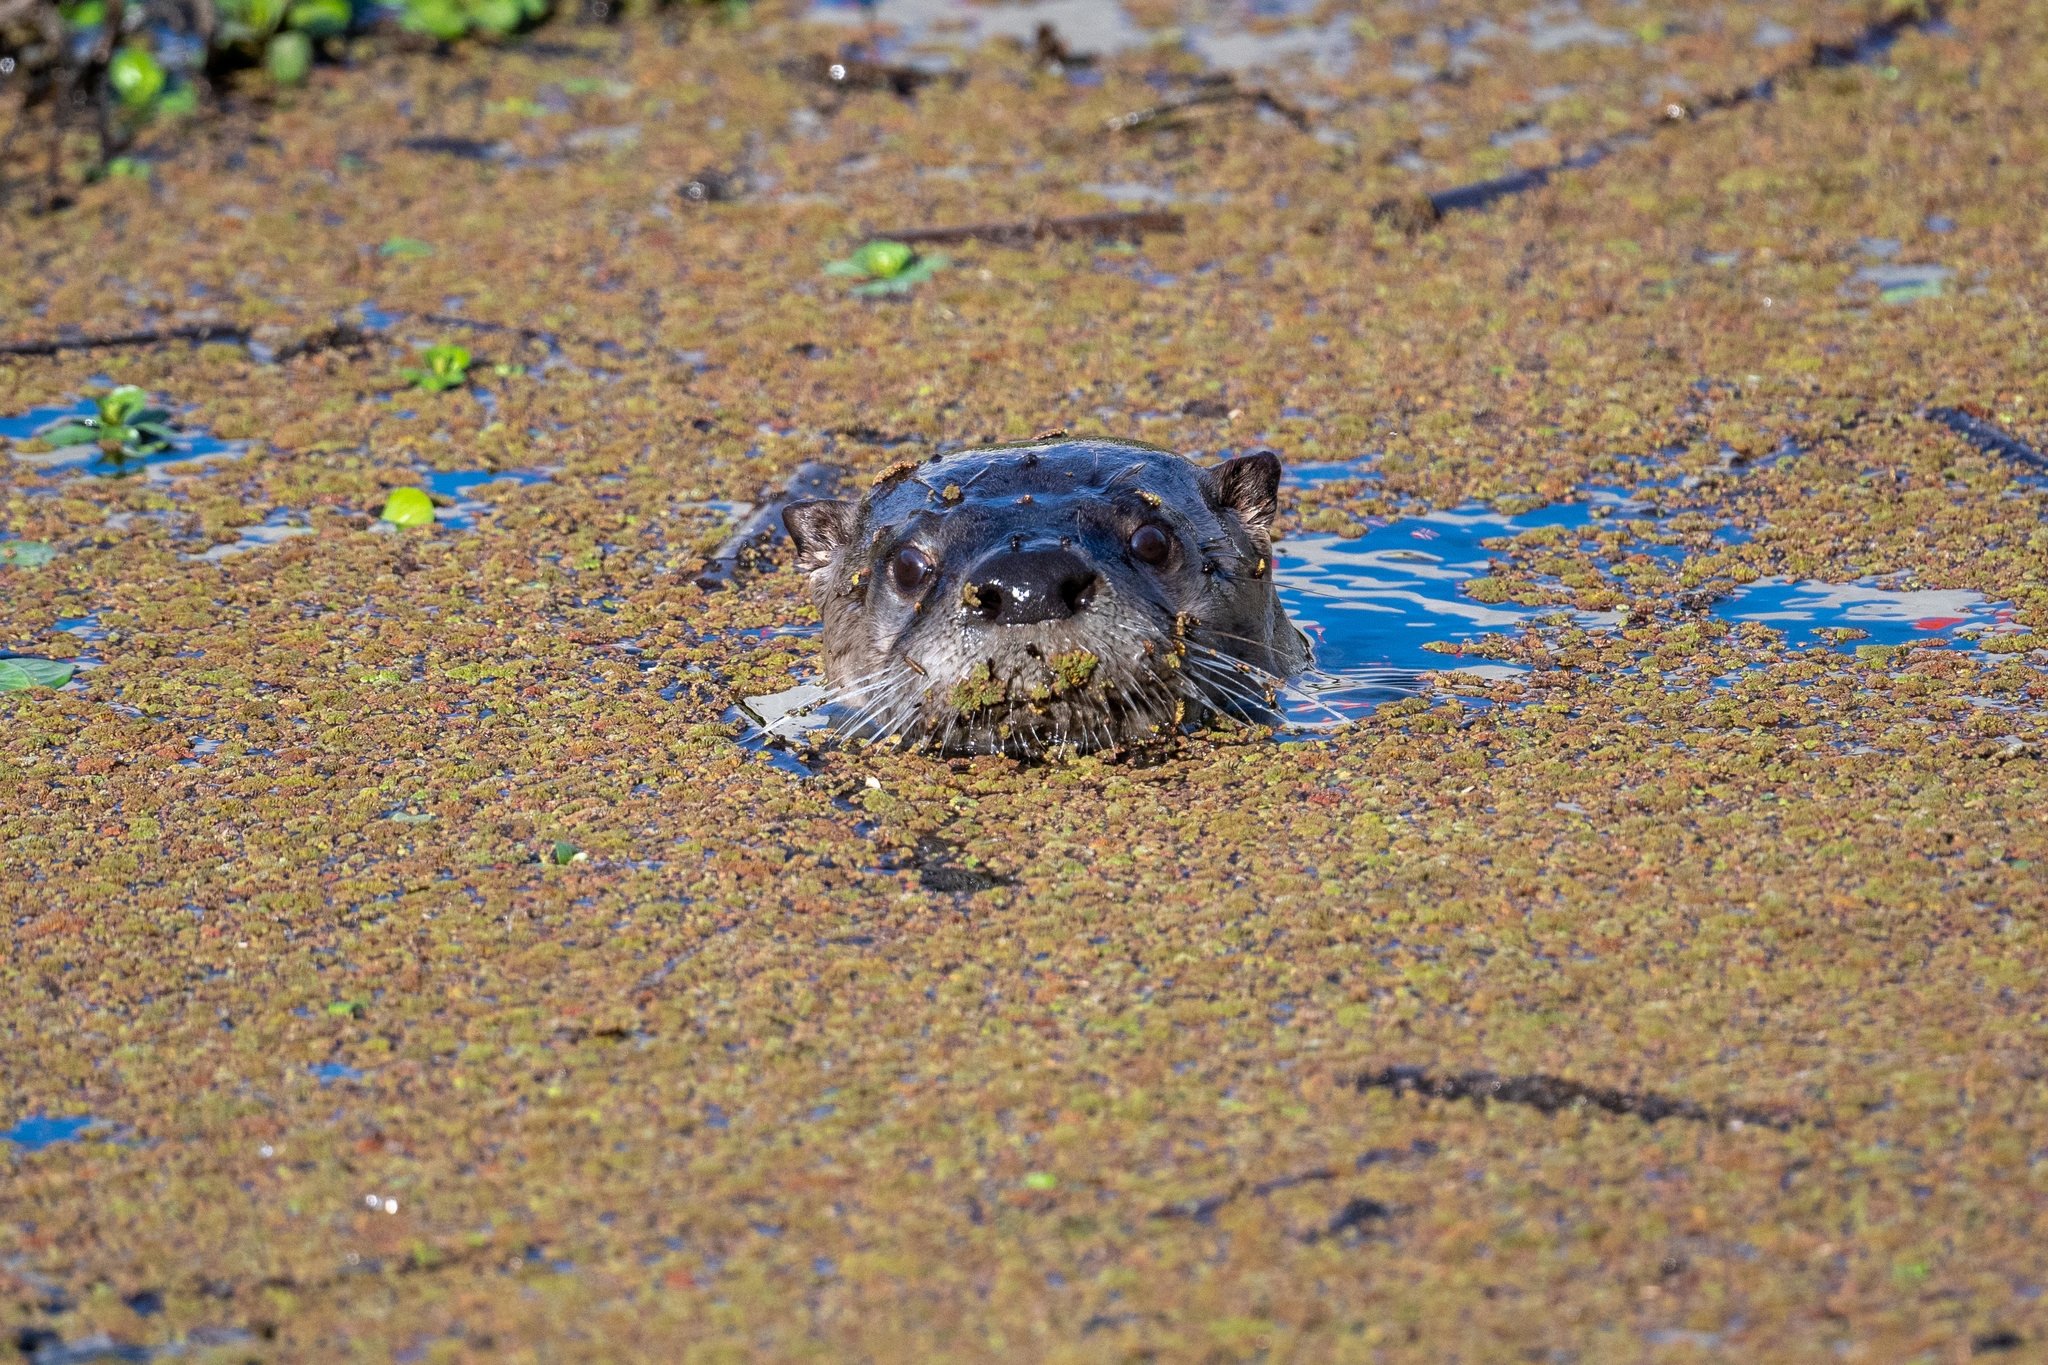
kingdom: Animalia
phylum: Chordata
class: Mammalia
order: Carnivora
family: Mustelidae
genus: Lontra
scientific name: Lontra canadensis
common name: North american river otter
